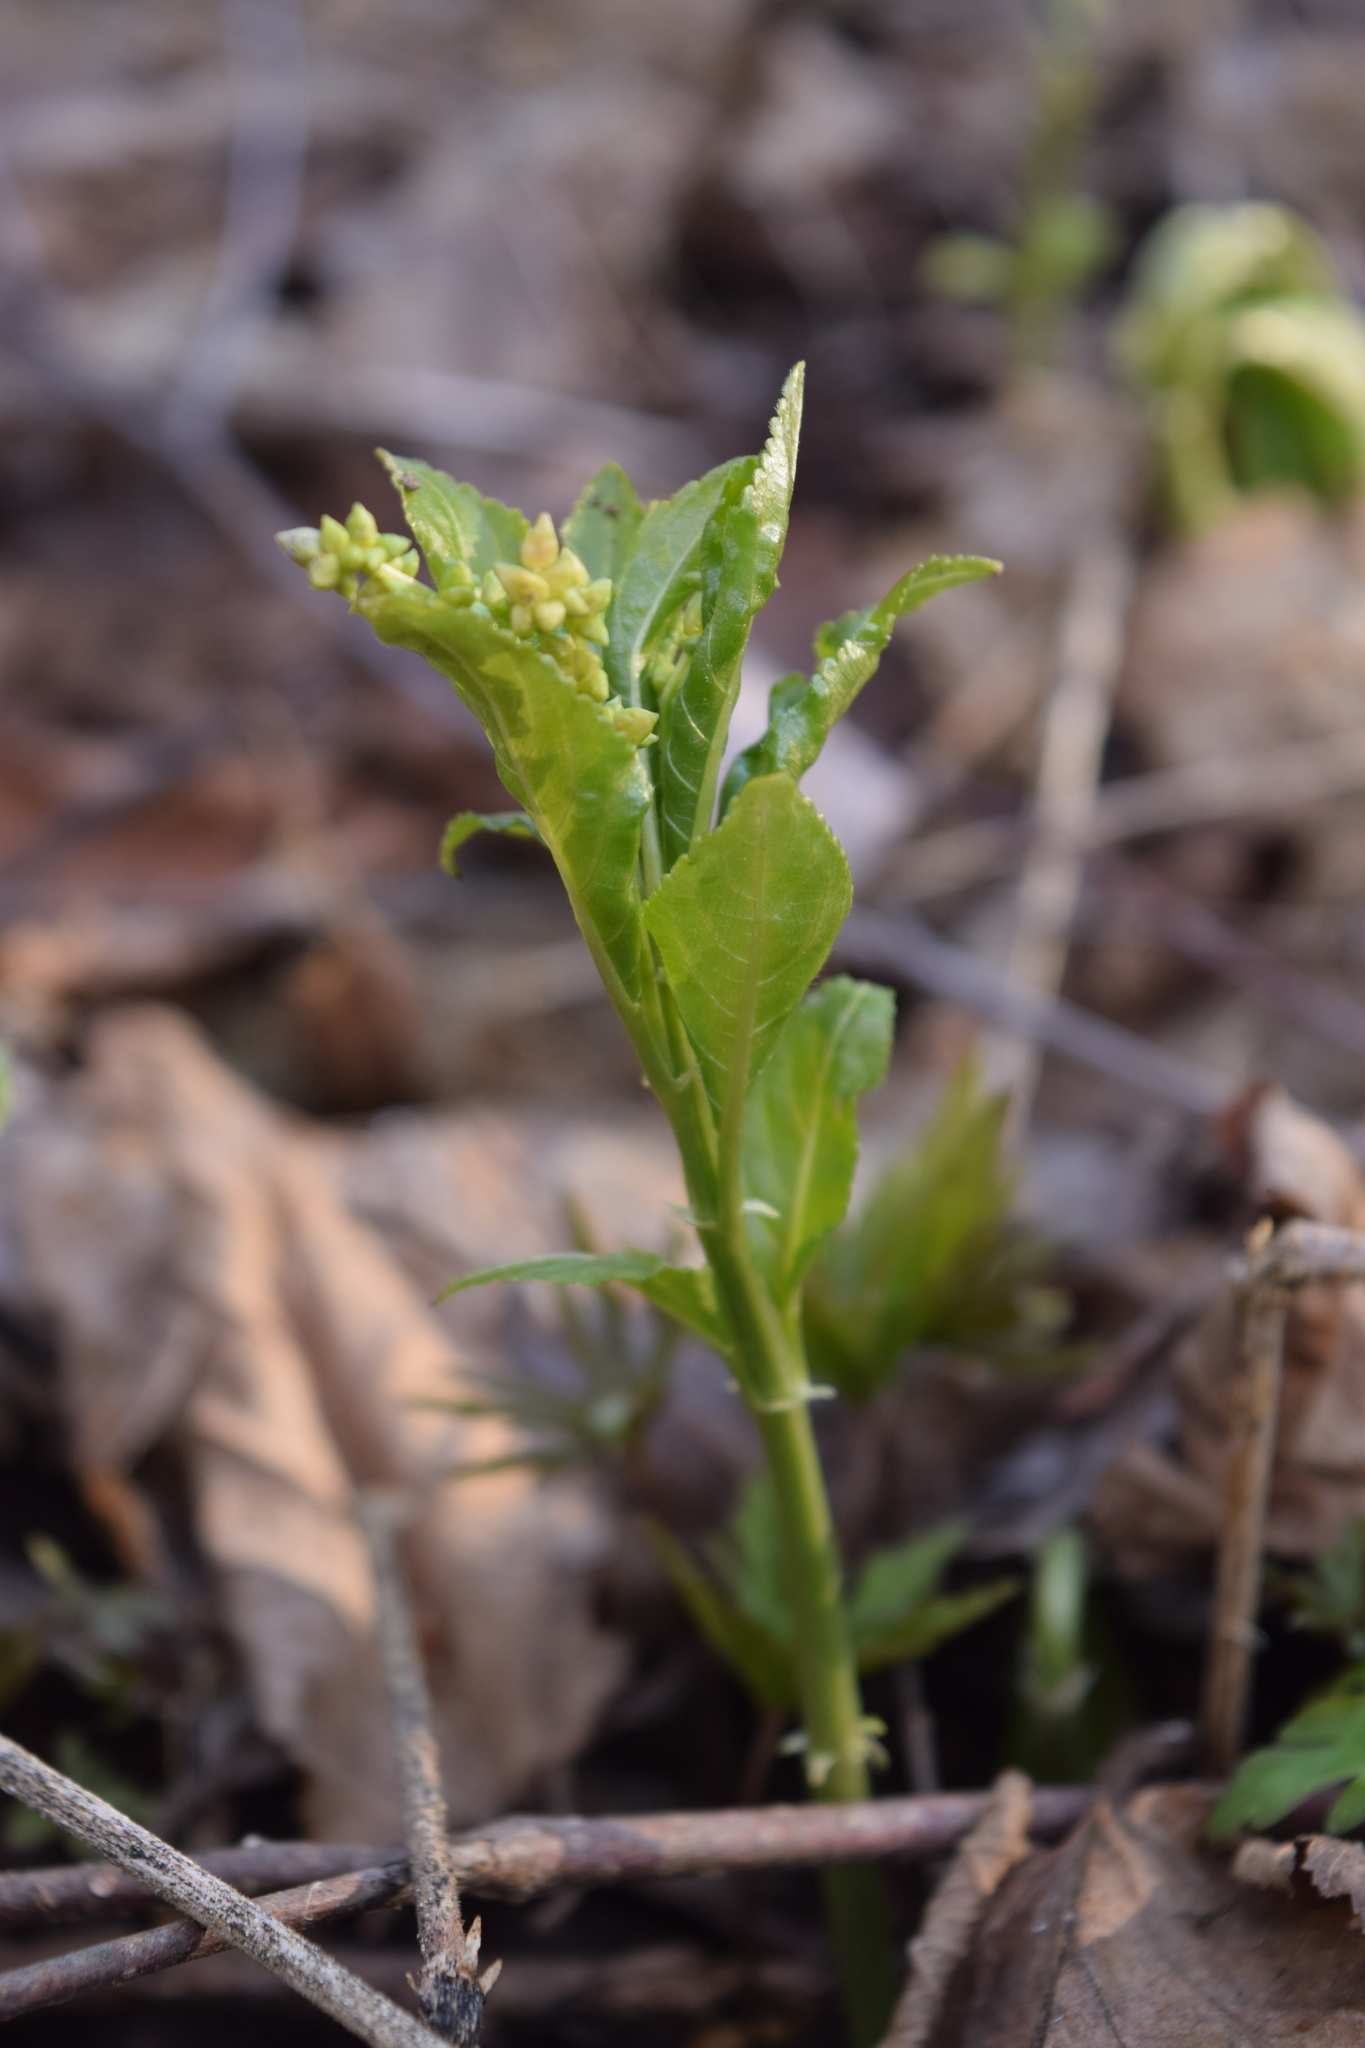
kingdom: Plantae
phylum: Tracheophyta
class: Magnoliopsida
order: Malpighiales
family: Euphorbiaceae
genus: Mercurialis
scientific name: Mercurialis perennis
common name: Dog mercury
